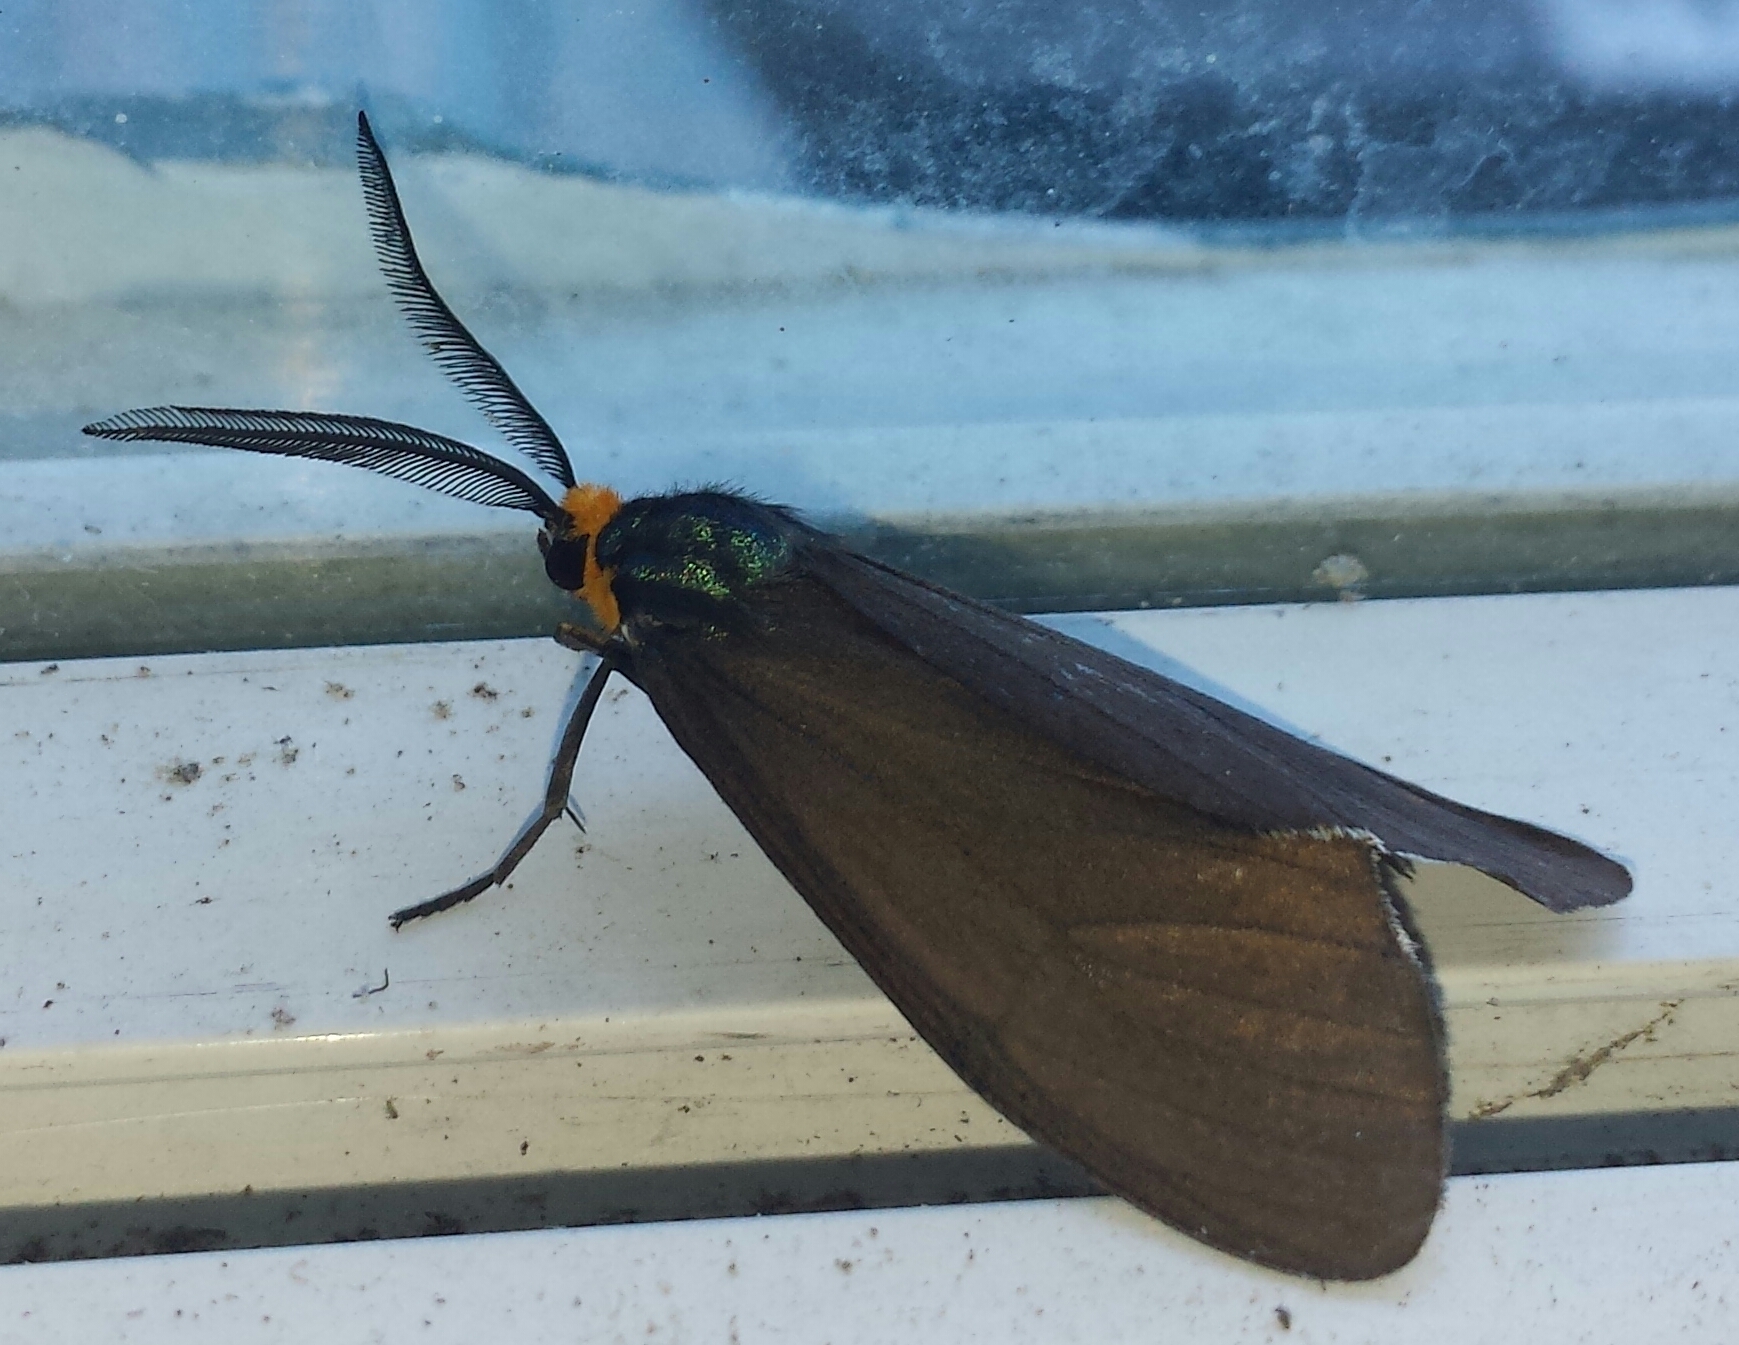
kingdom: Animalia
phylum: Arthropoda
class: Insecta
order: Lepidoptera
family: Erebidae
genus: Ctenucha
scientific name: Ctenucha virginica
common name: Virginia ctenucha moth
